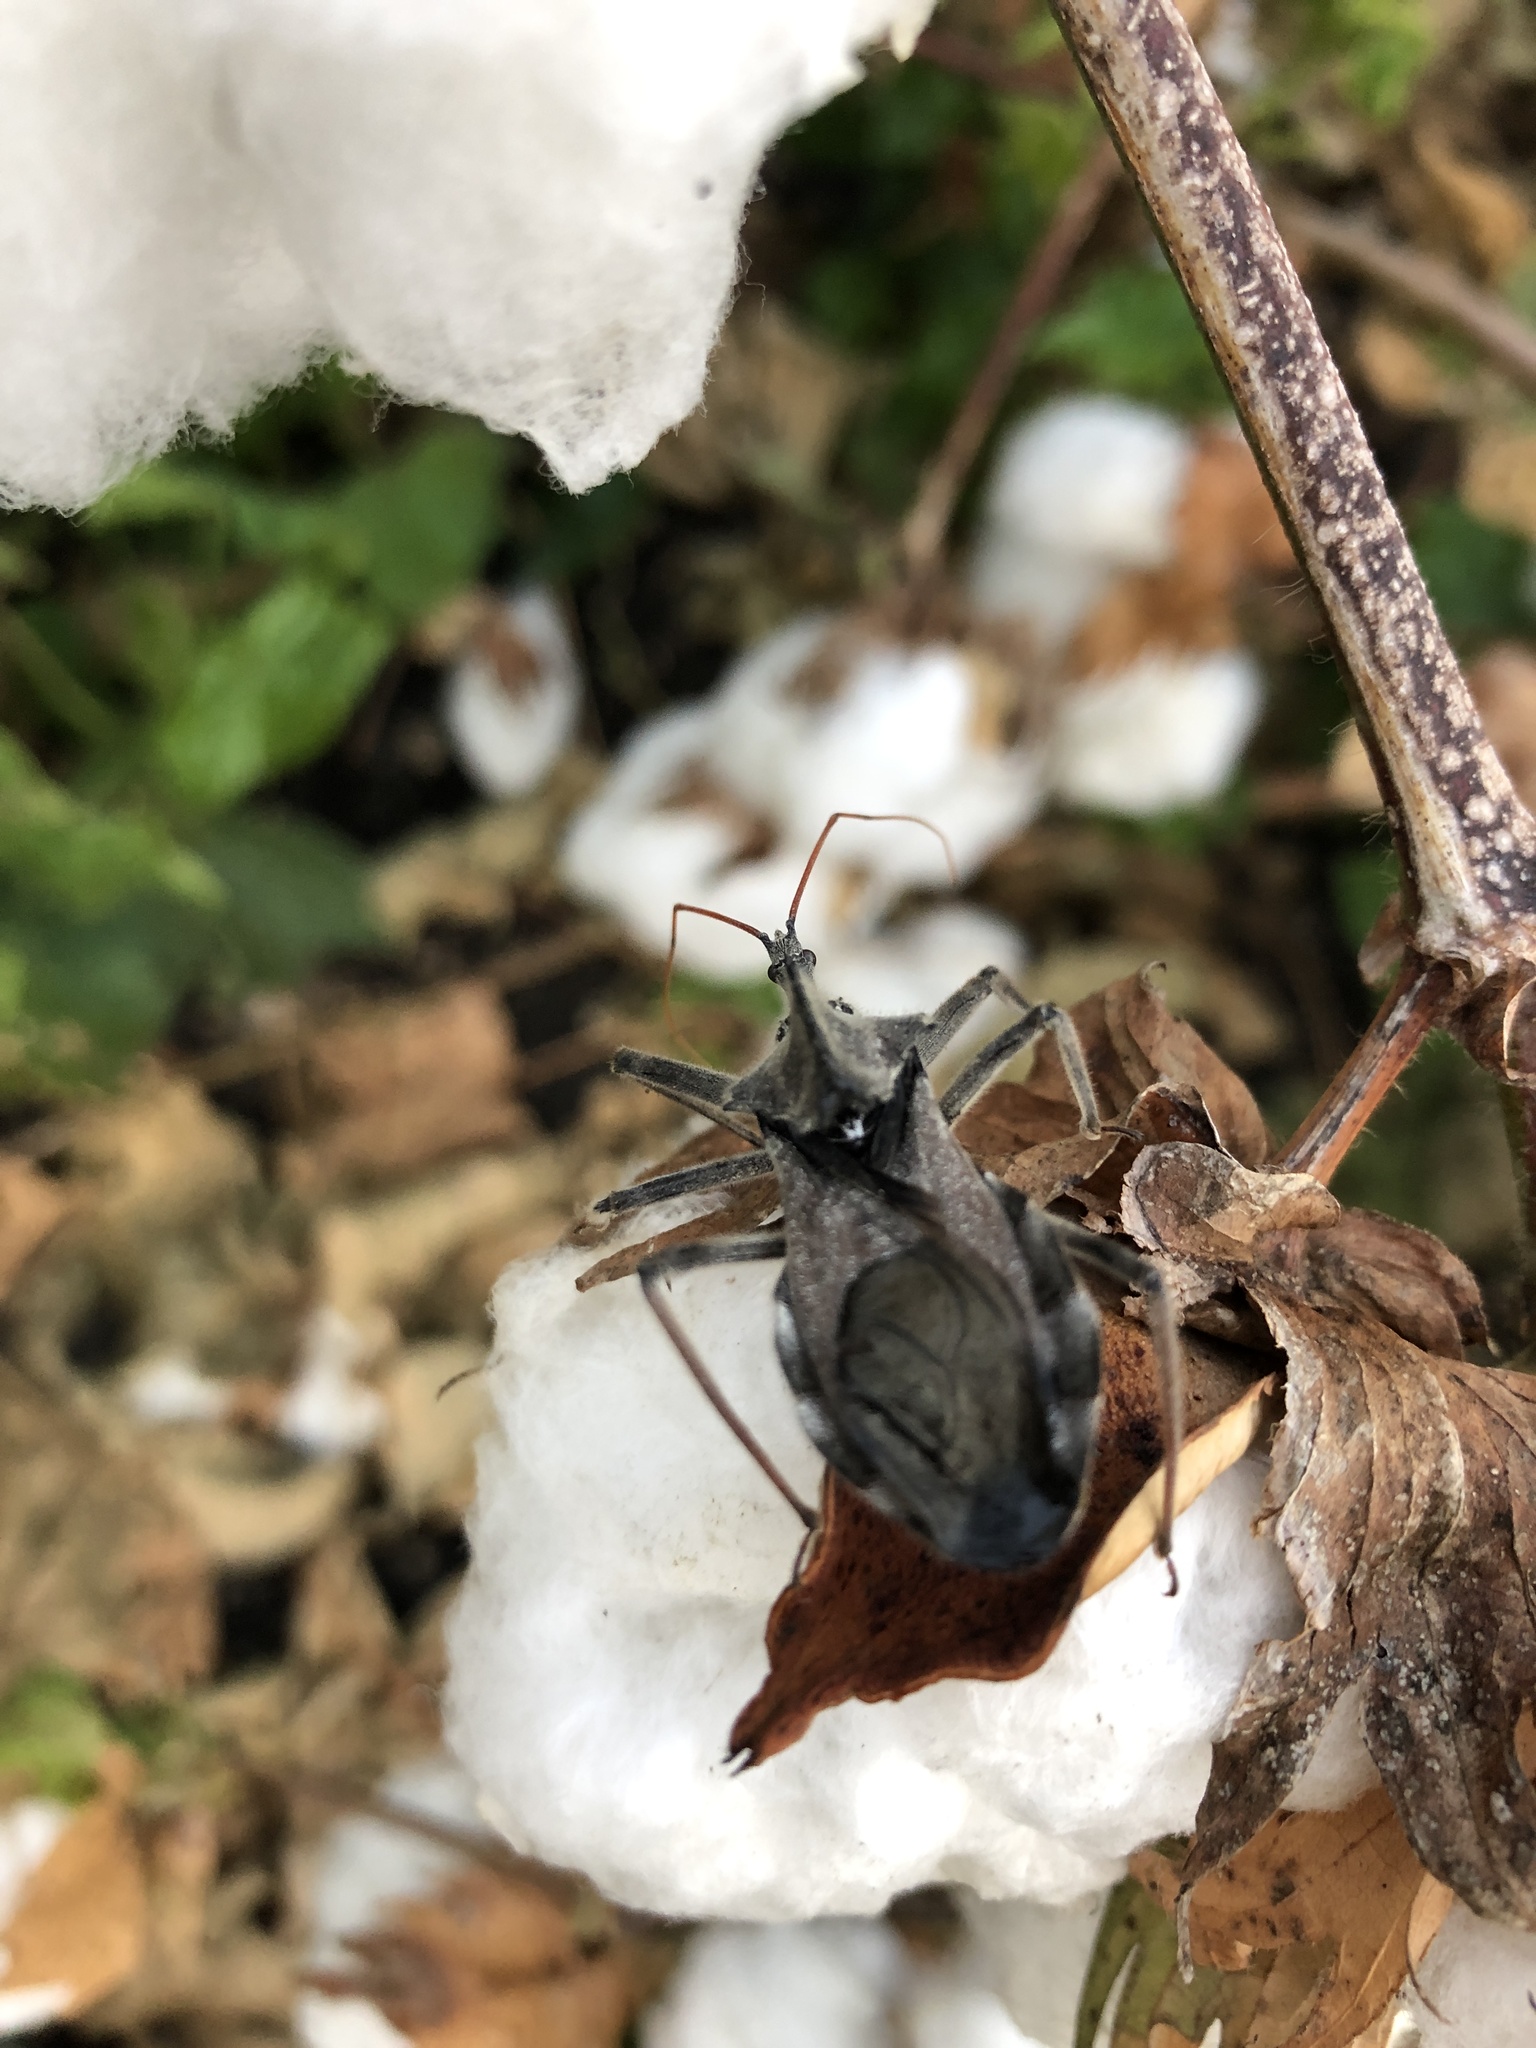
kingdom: Animalia
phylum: Arthropoda
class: Insecta
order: Hemiptera
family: Reduviidae
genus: Arilus
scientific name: Arilus cristatus
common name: North american wheel bug
